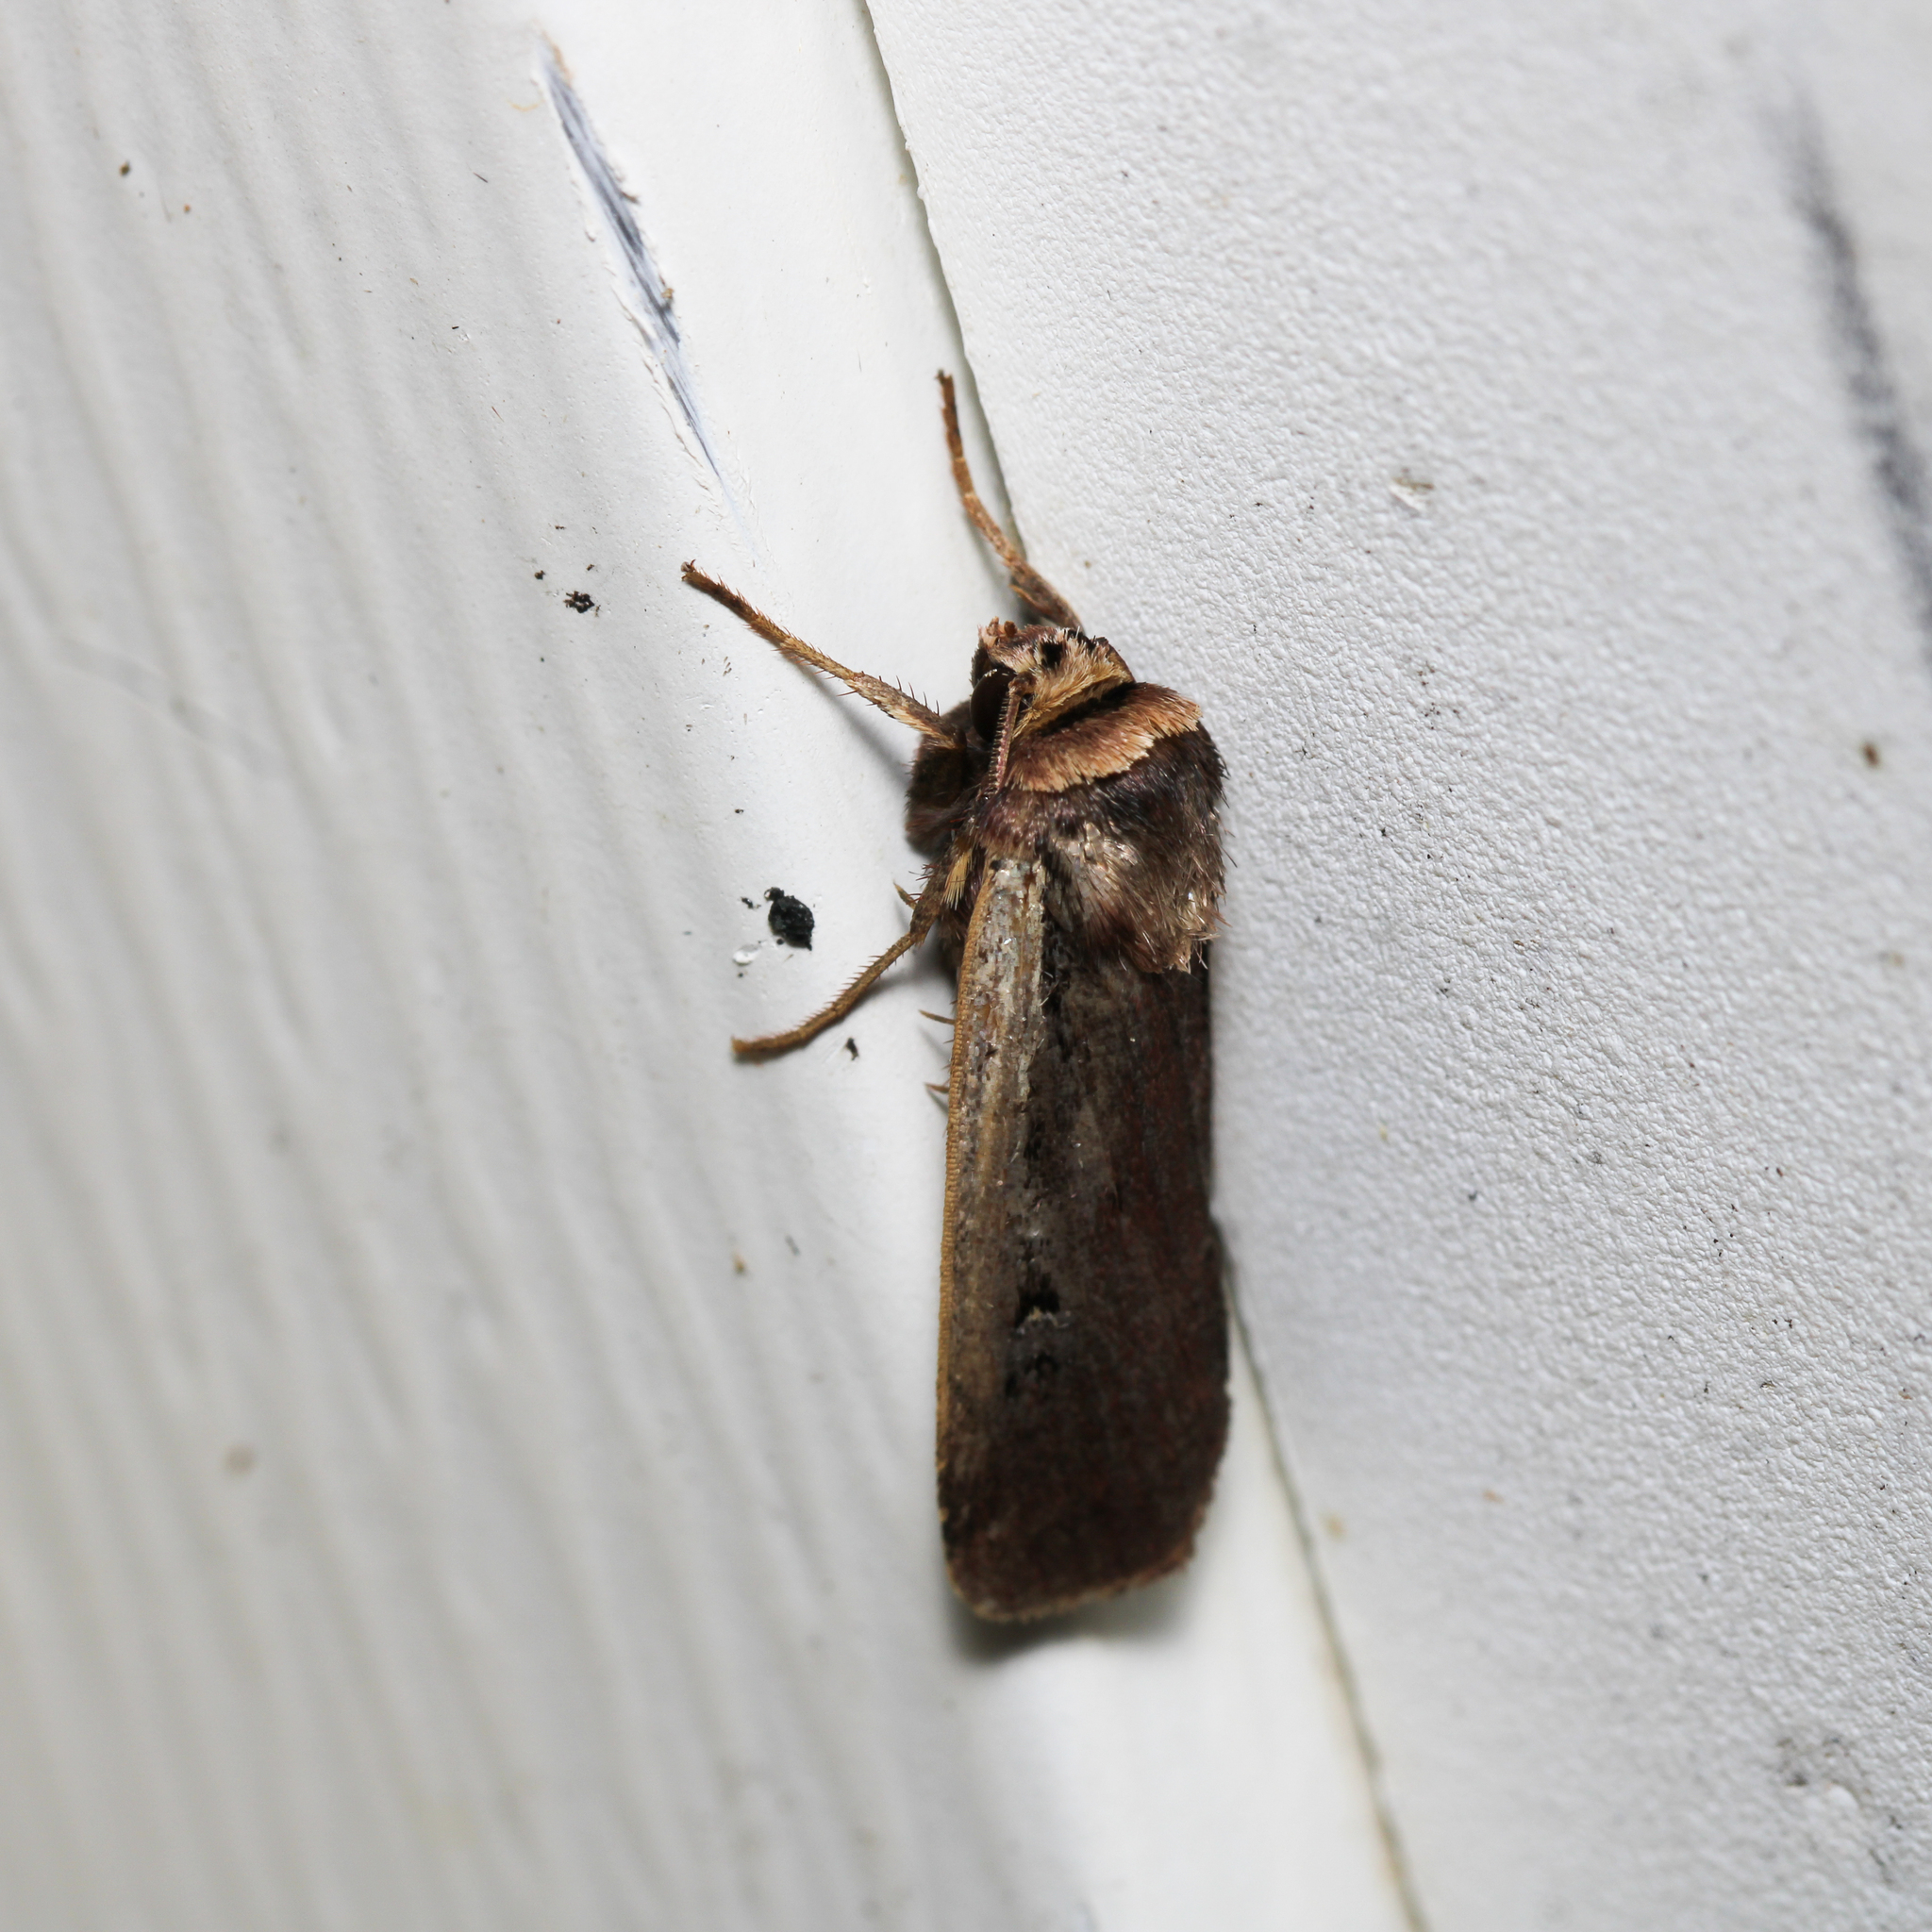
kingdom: Animalia
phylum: Arthropoda
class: Insecta
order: Lepidoptera
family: Noctuidae
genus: Ochropleura
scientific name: Ochropleura implecta
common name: Flame-shouldered dart
